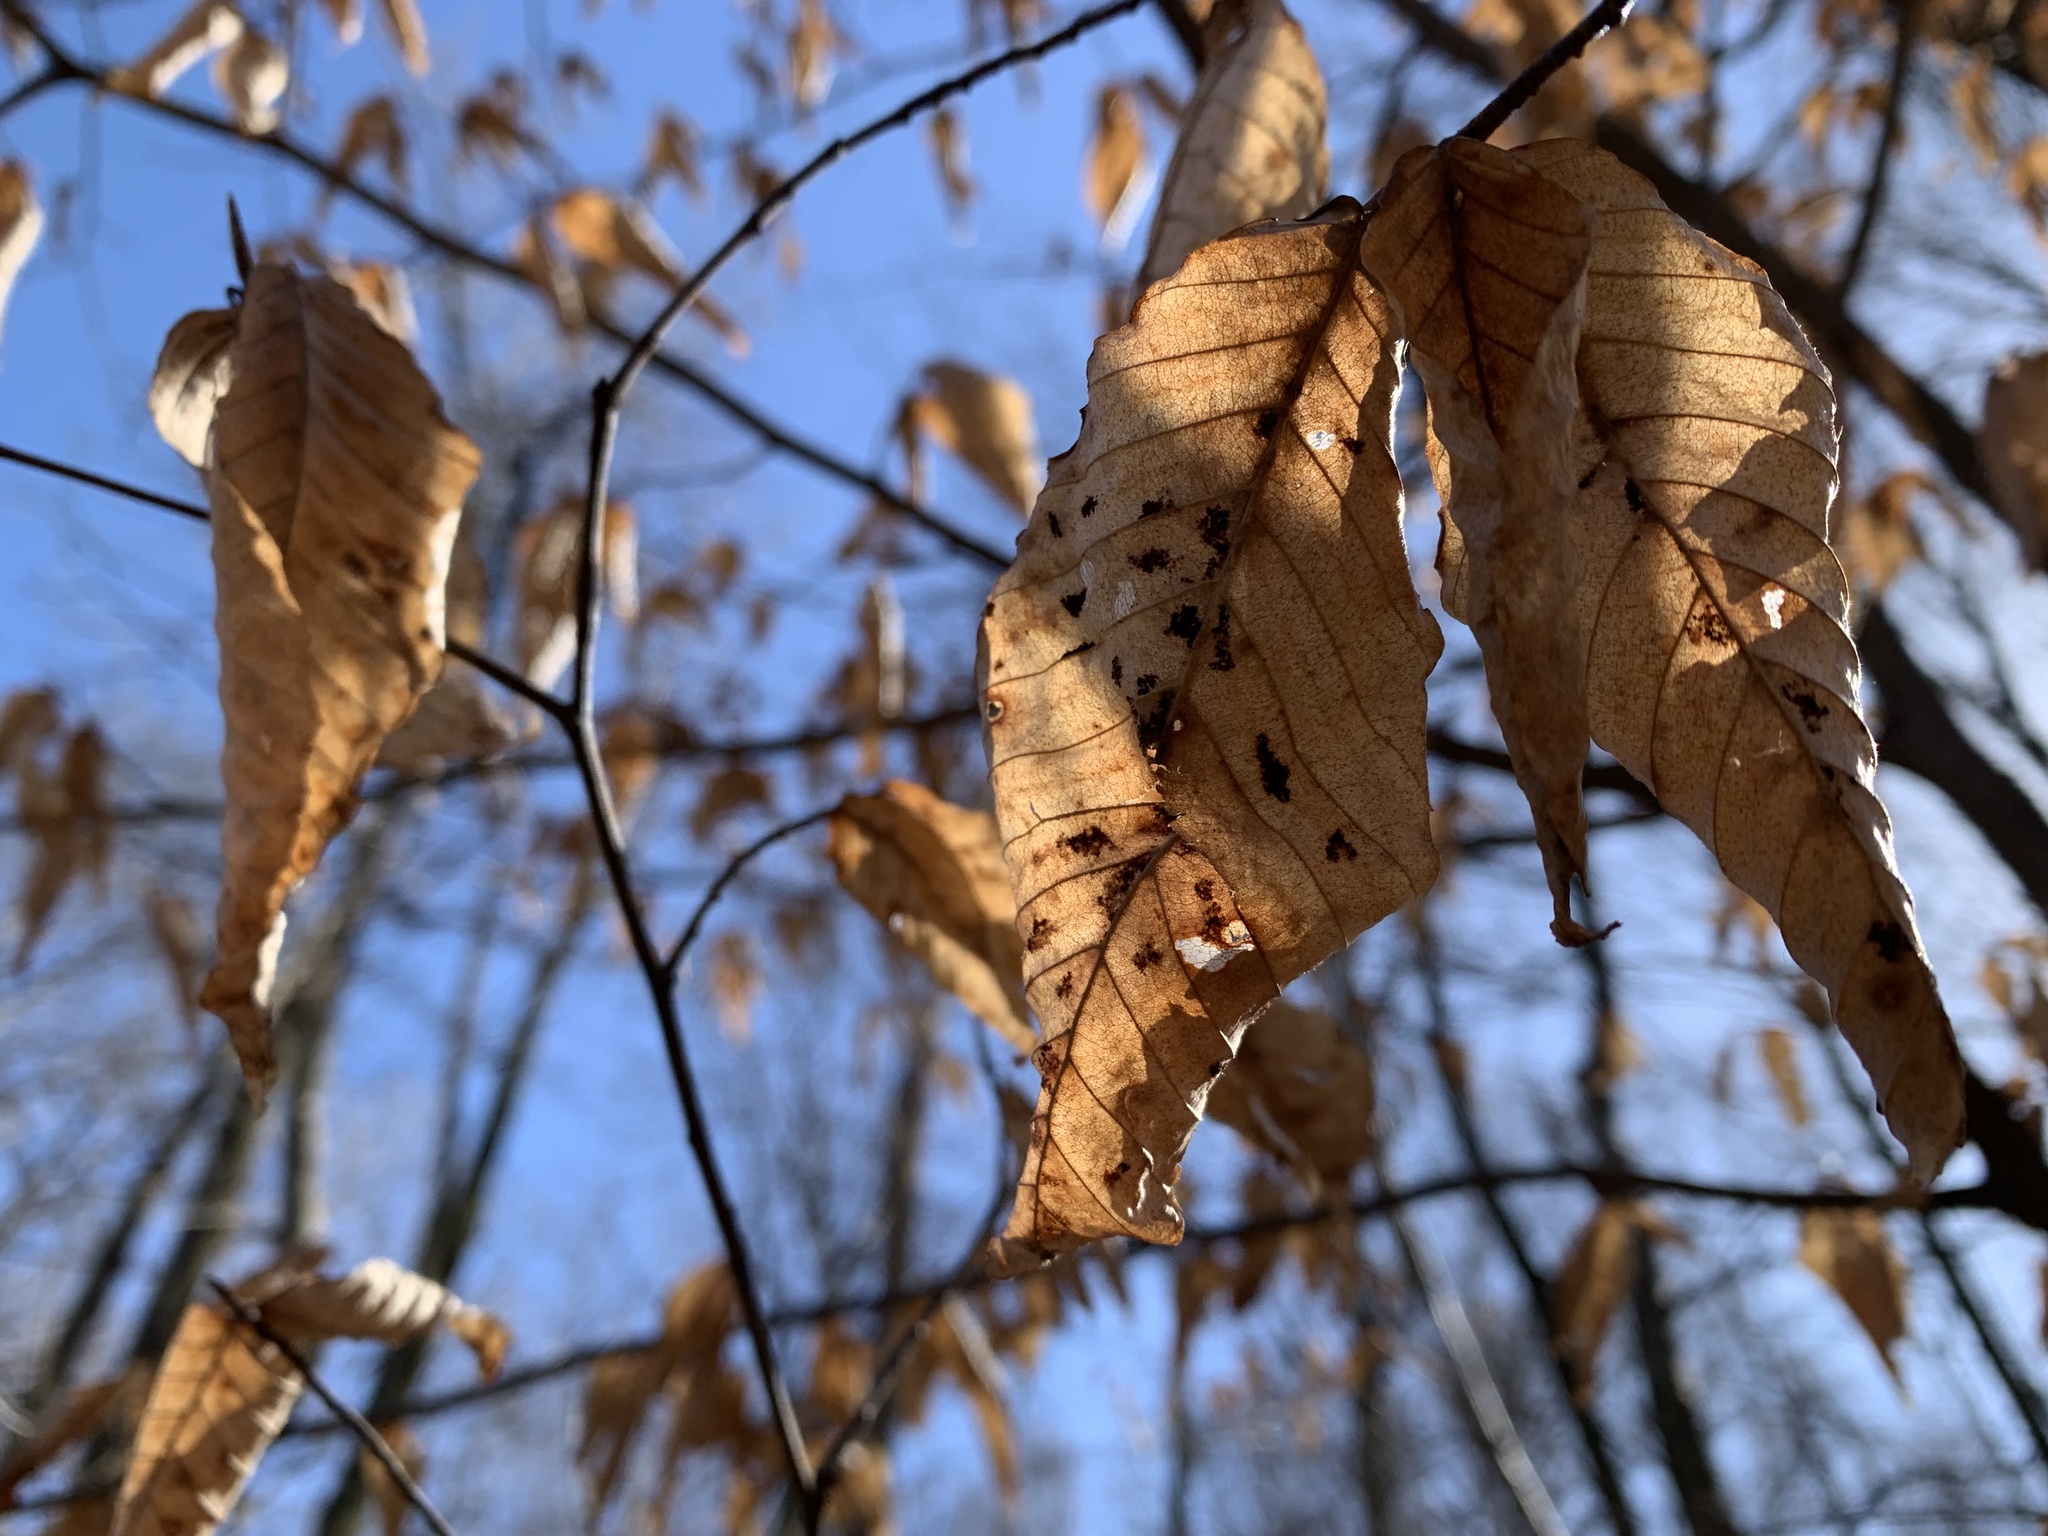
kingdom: Animalia
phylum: Arthropoda
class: Arachnida
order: Trombidiformes
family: Eriophyidae
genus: Acalitus
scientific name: Acalitus
